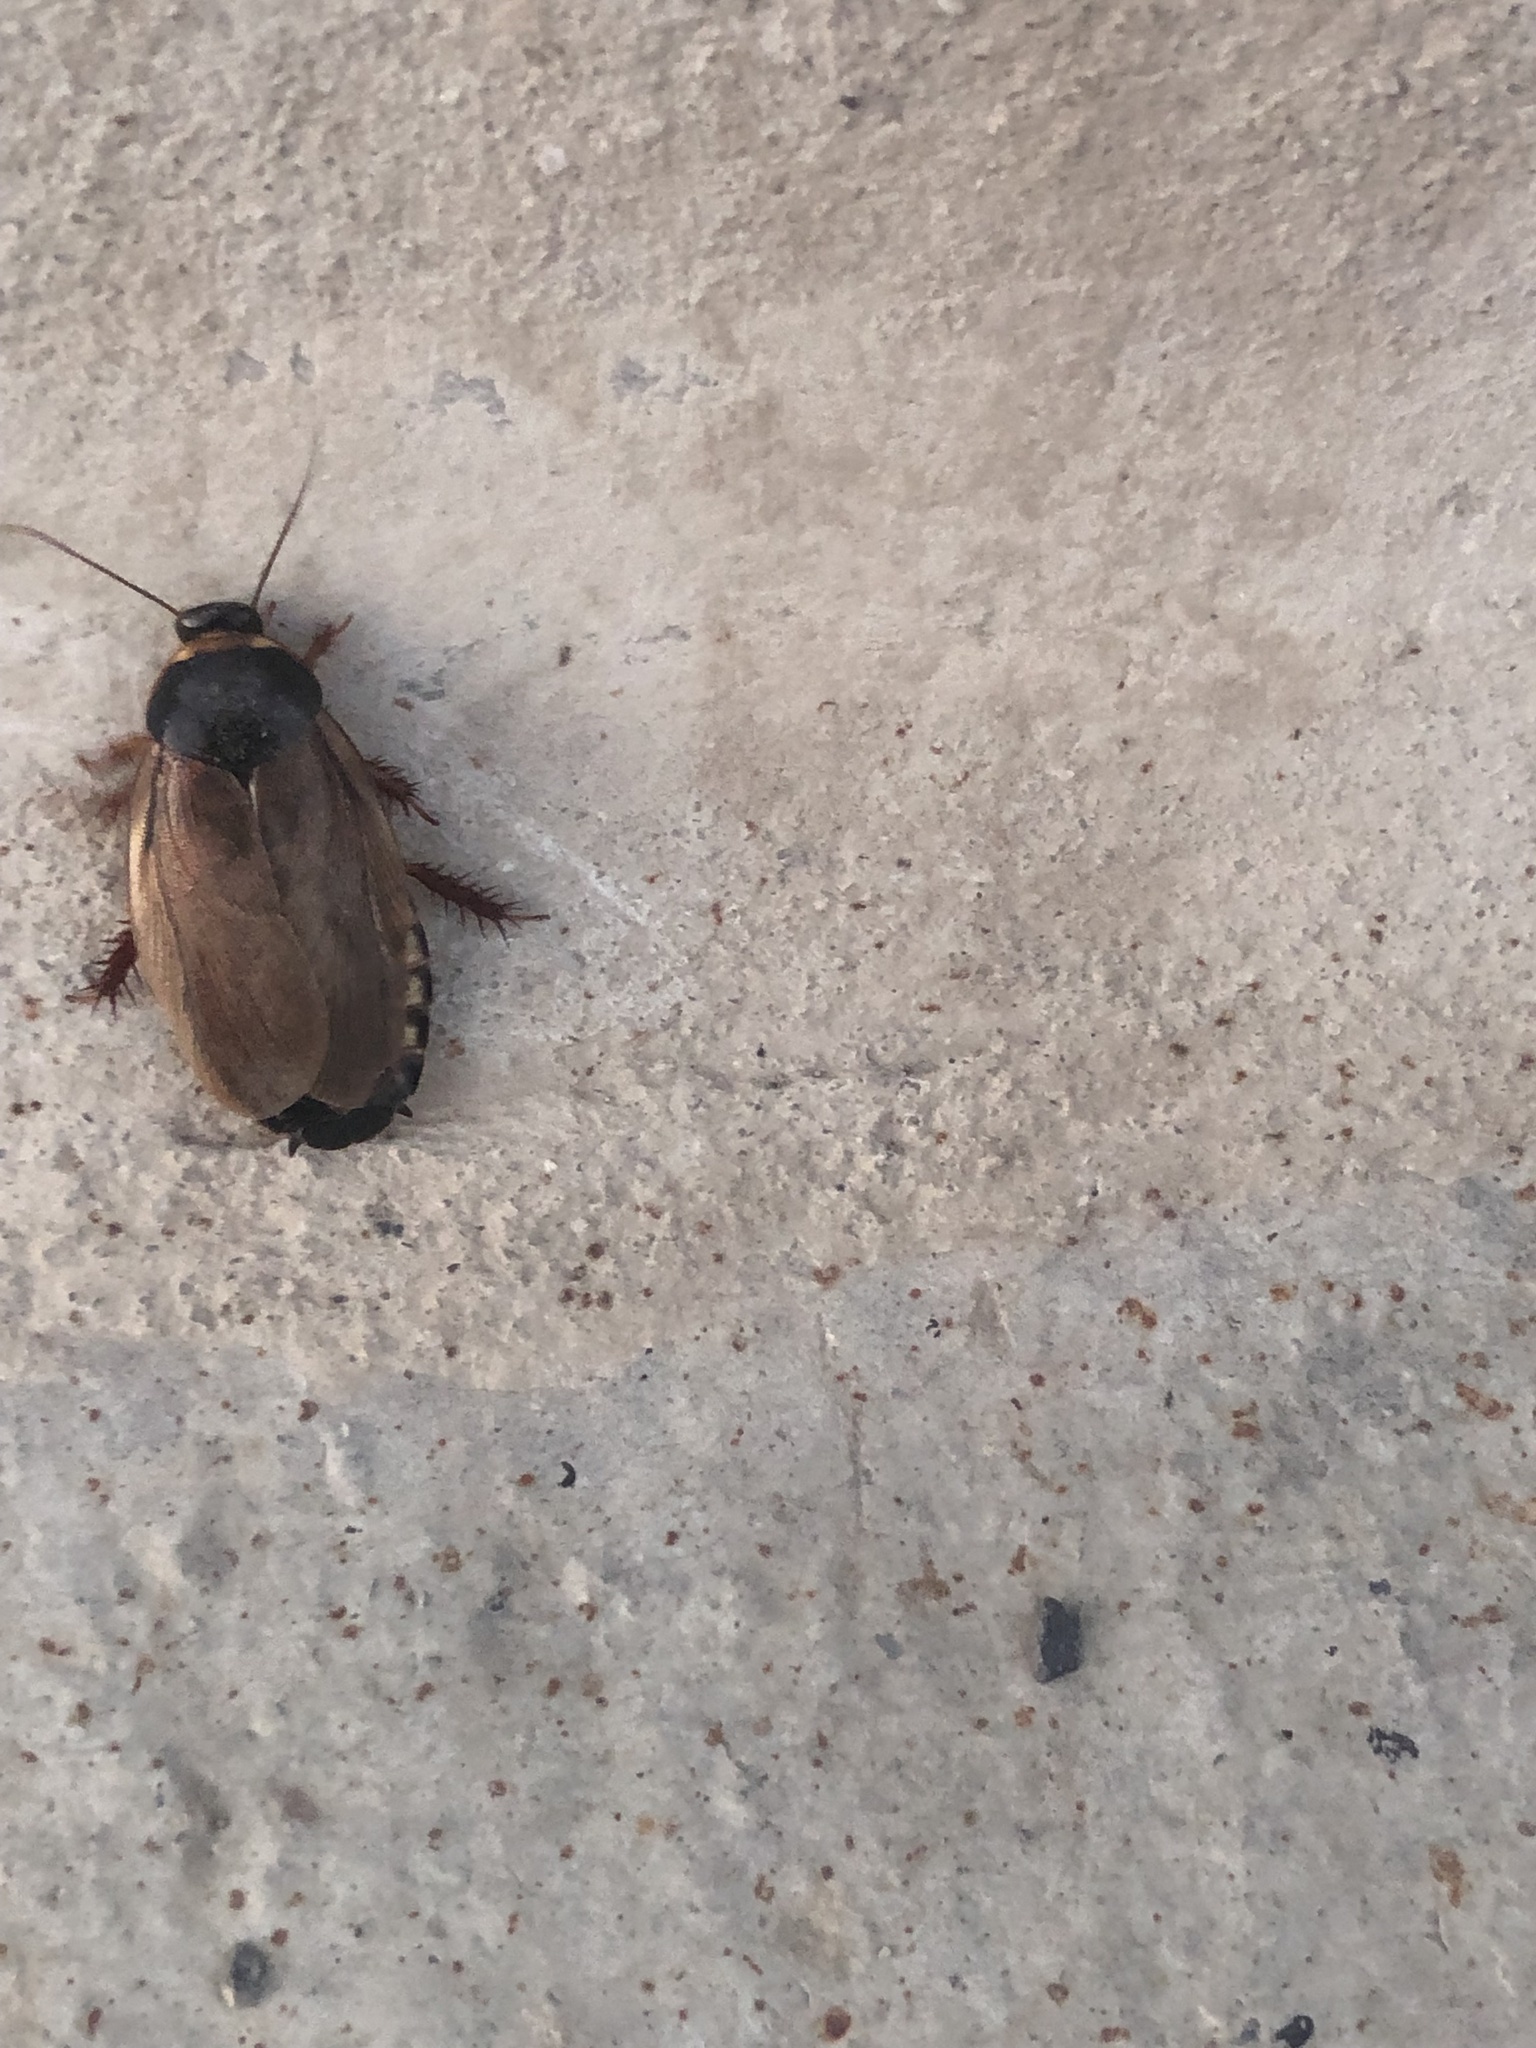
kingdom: Animalia
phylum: Arthropoda
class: Insecta
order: Blattodea
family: Blaberidae
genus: Pycnoscelus
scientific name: Pycnoscelus surinamensis
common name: Surinam cockroach
